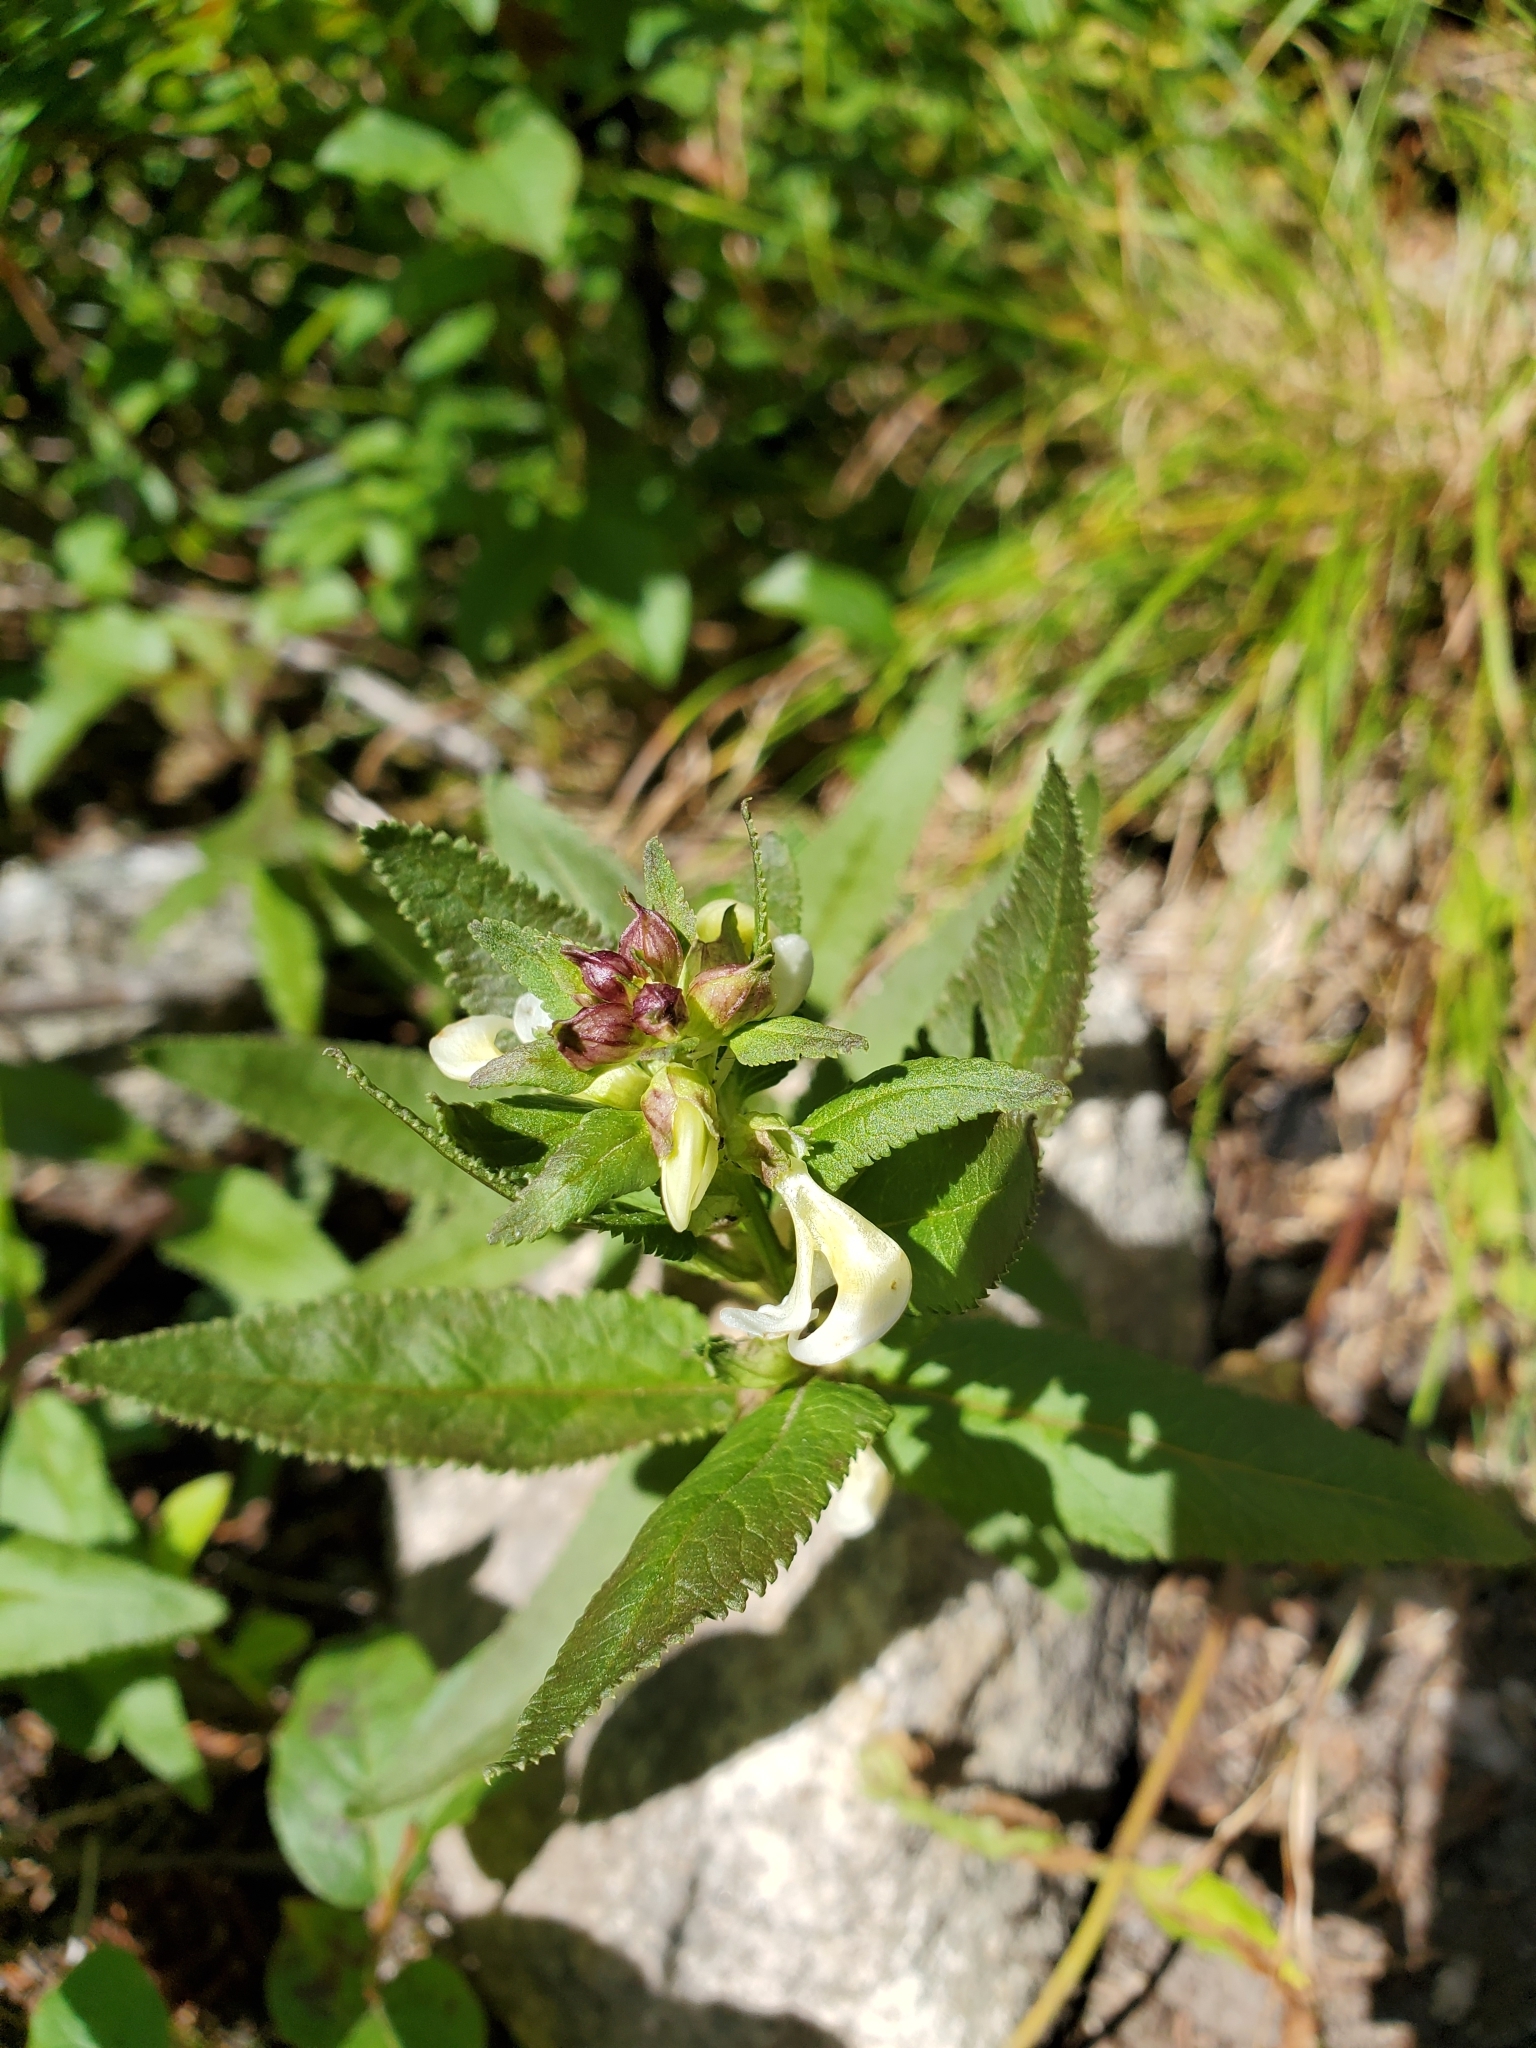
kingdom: Plantae
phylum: Tracheophyta
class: Magnoliopsida
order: Lamiales
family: Orobanchaceae
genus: Pedicularis
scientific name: Pedicularis racemosa
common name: Leafy lousewort
